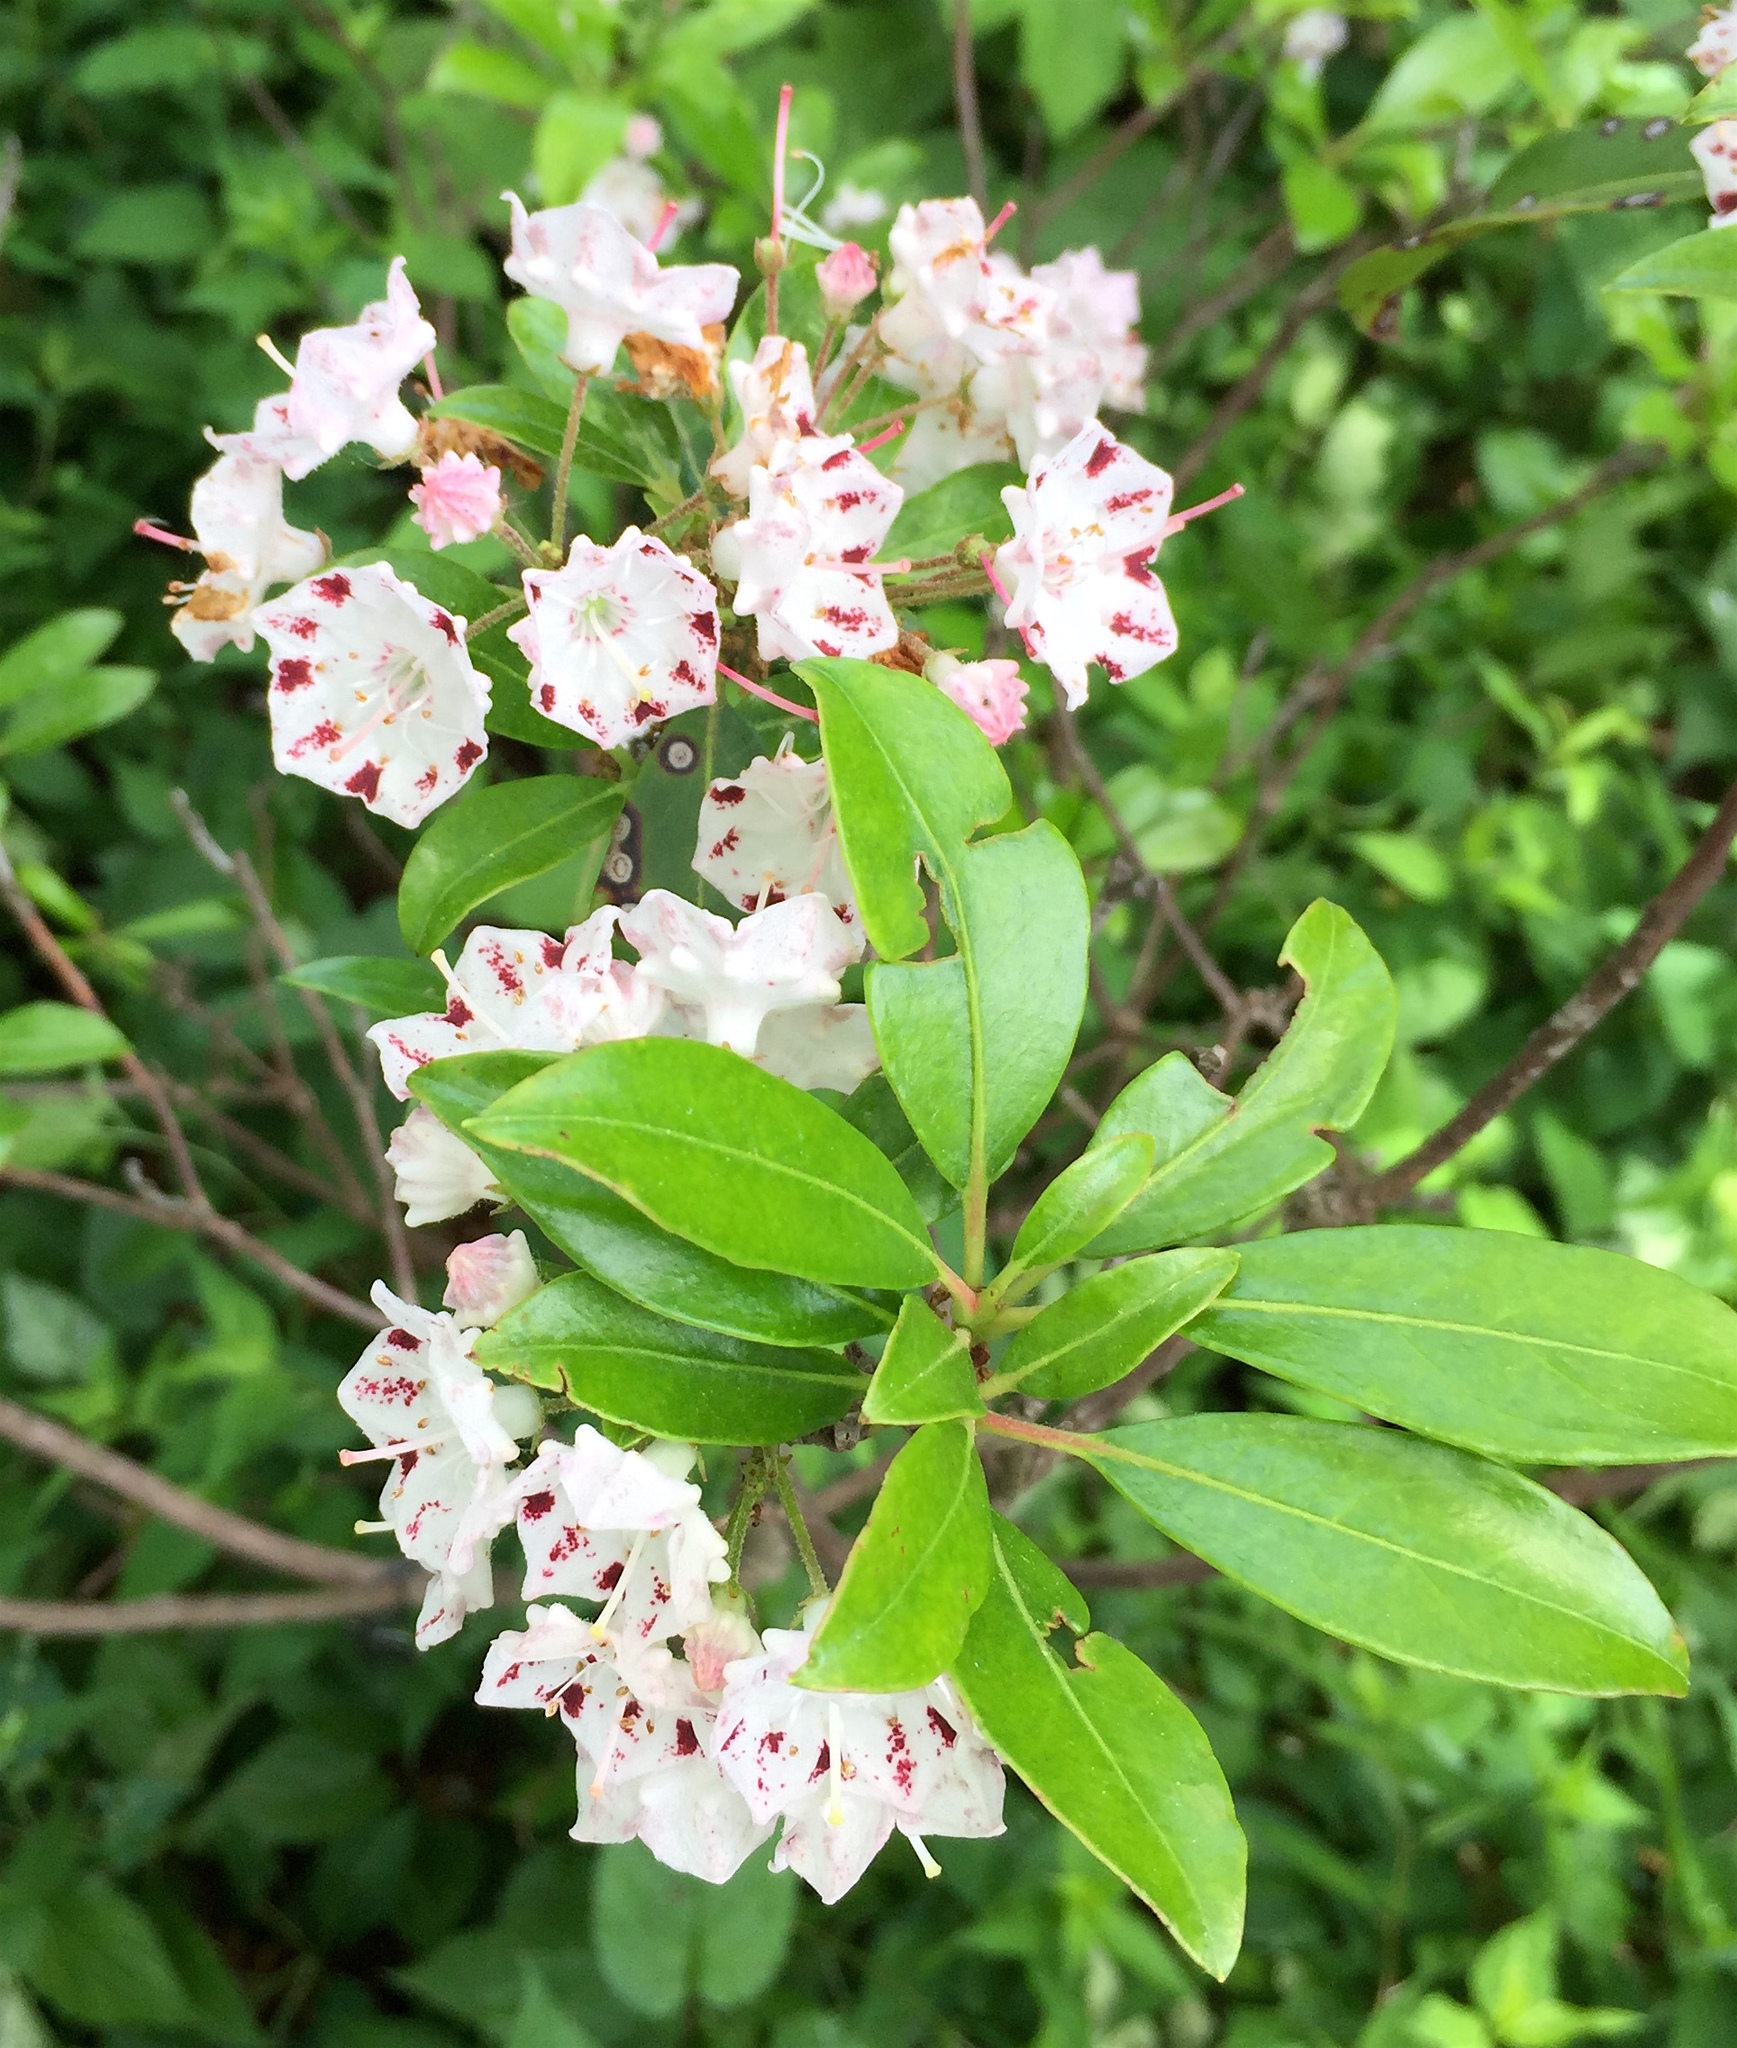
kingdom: Plantae
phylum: Tracheophyta
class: Magnoliopsida
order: Ericales
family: Ericaceae
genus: Kalmia
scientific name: Kalmia latifolia
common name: Mountain-laurel
